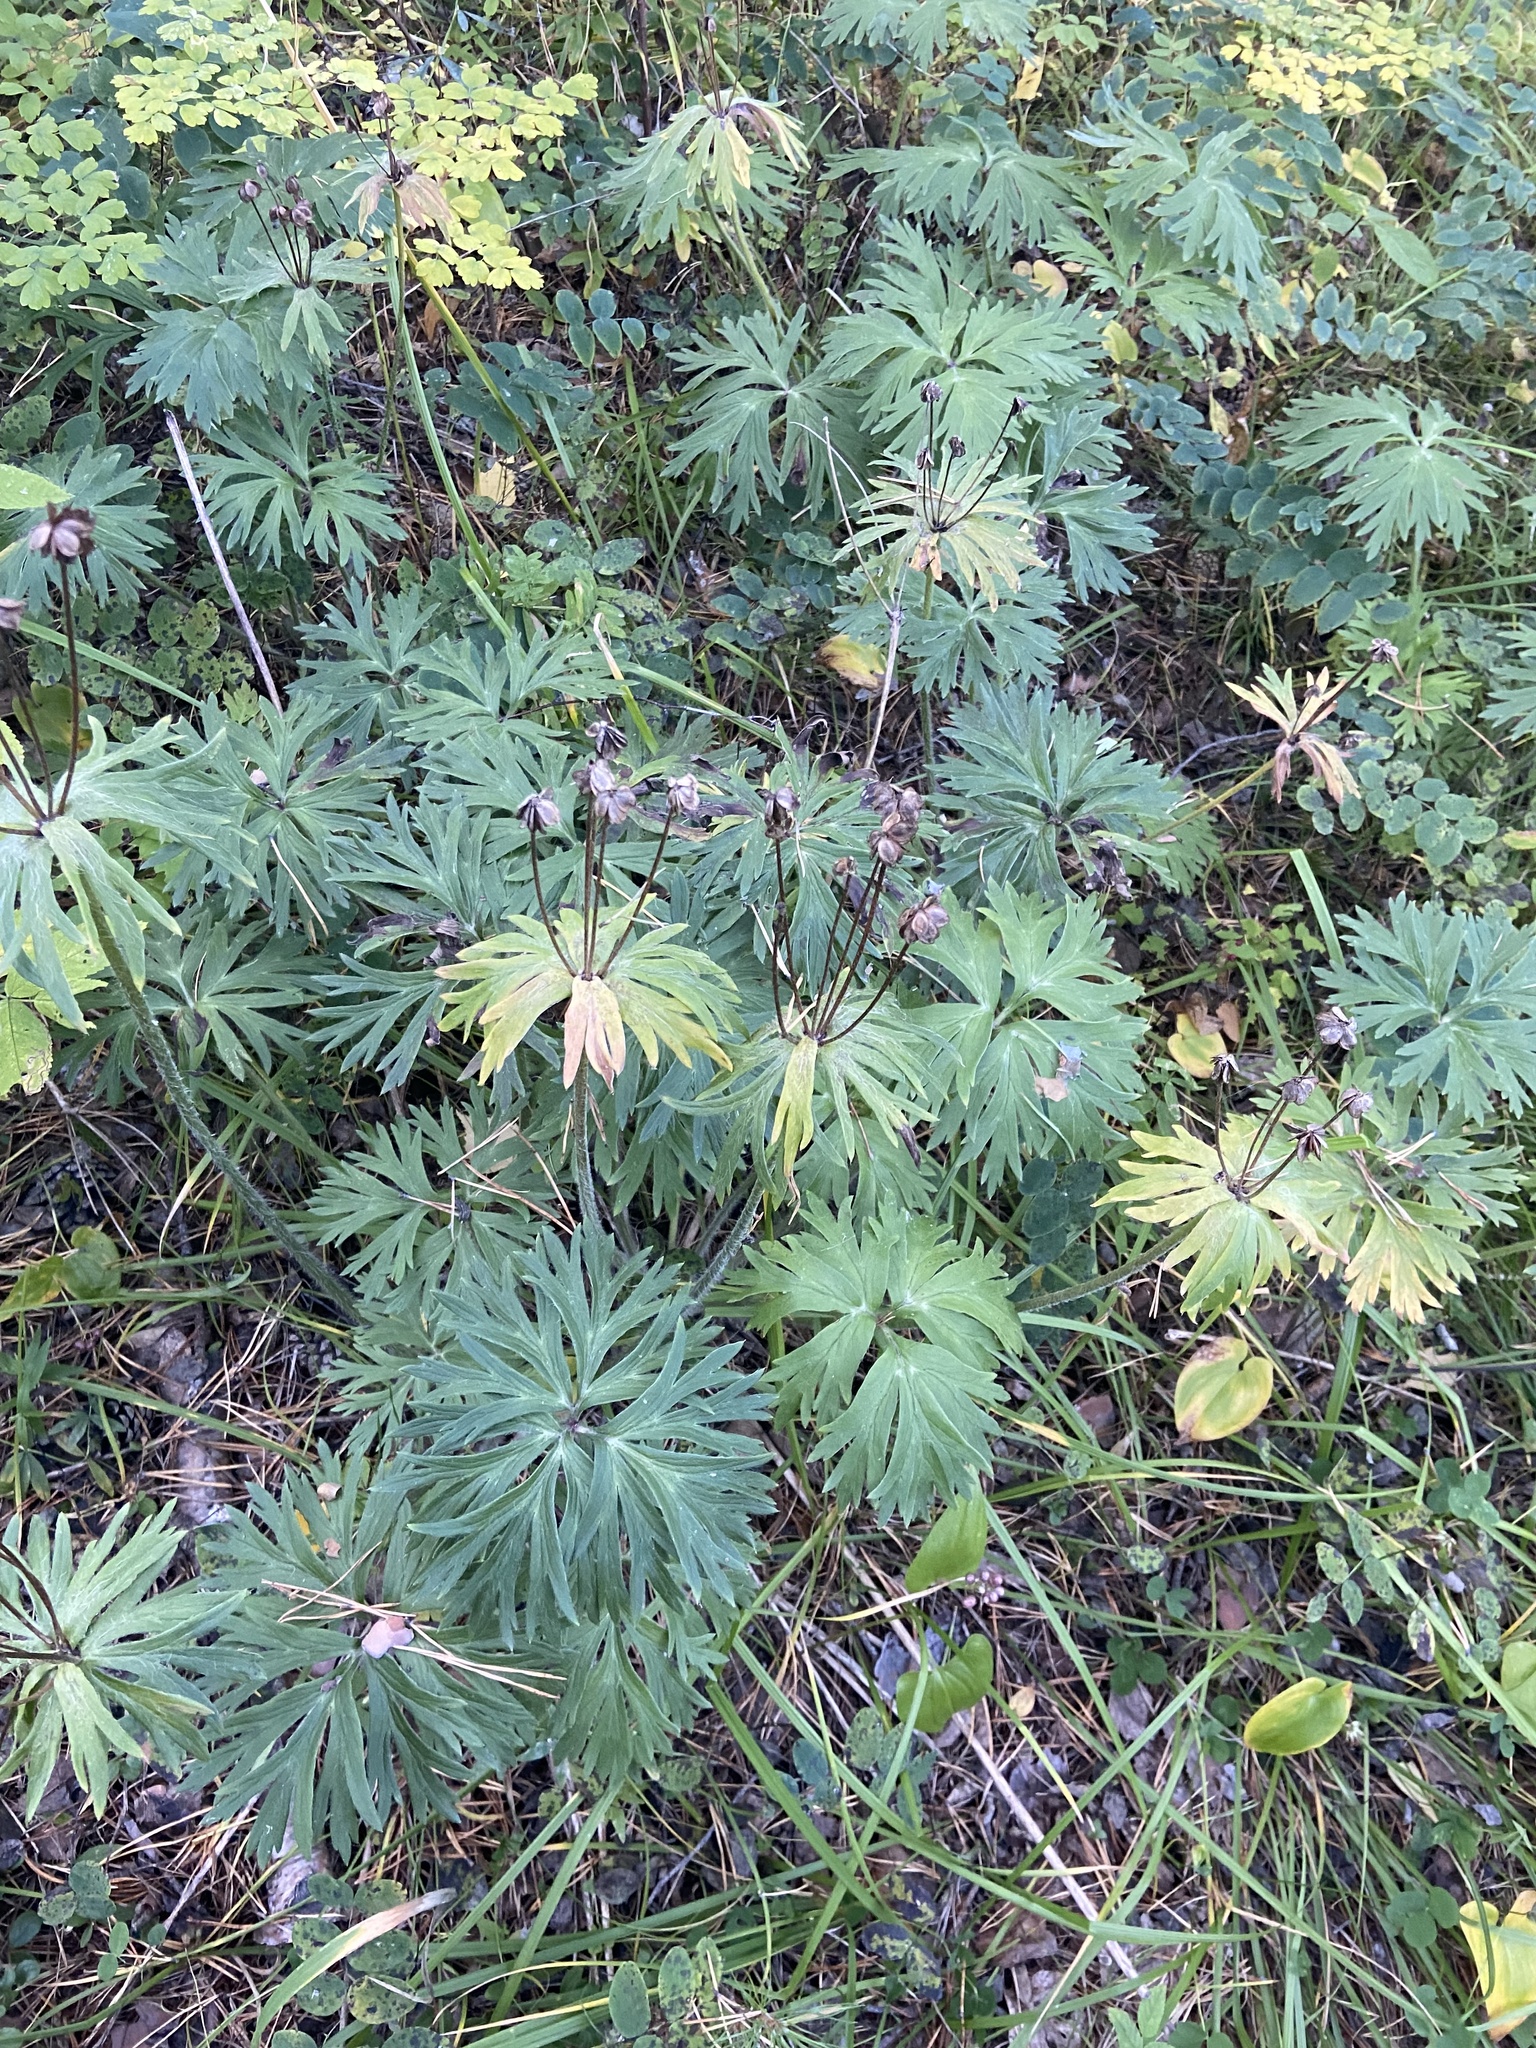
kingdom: Plantae
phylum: Tracheophyta
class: Magnoliopsida
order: Ranunculales
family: Ranunculaceae
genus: Anemonastrum
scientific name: Anemonastrum narcissiflorum
